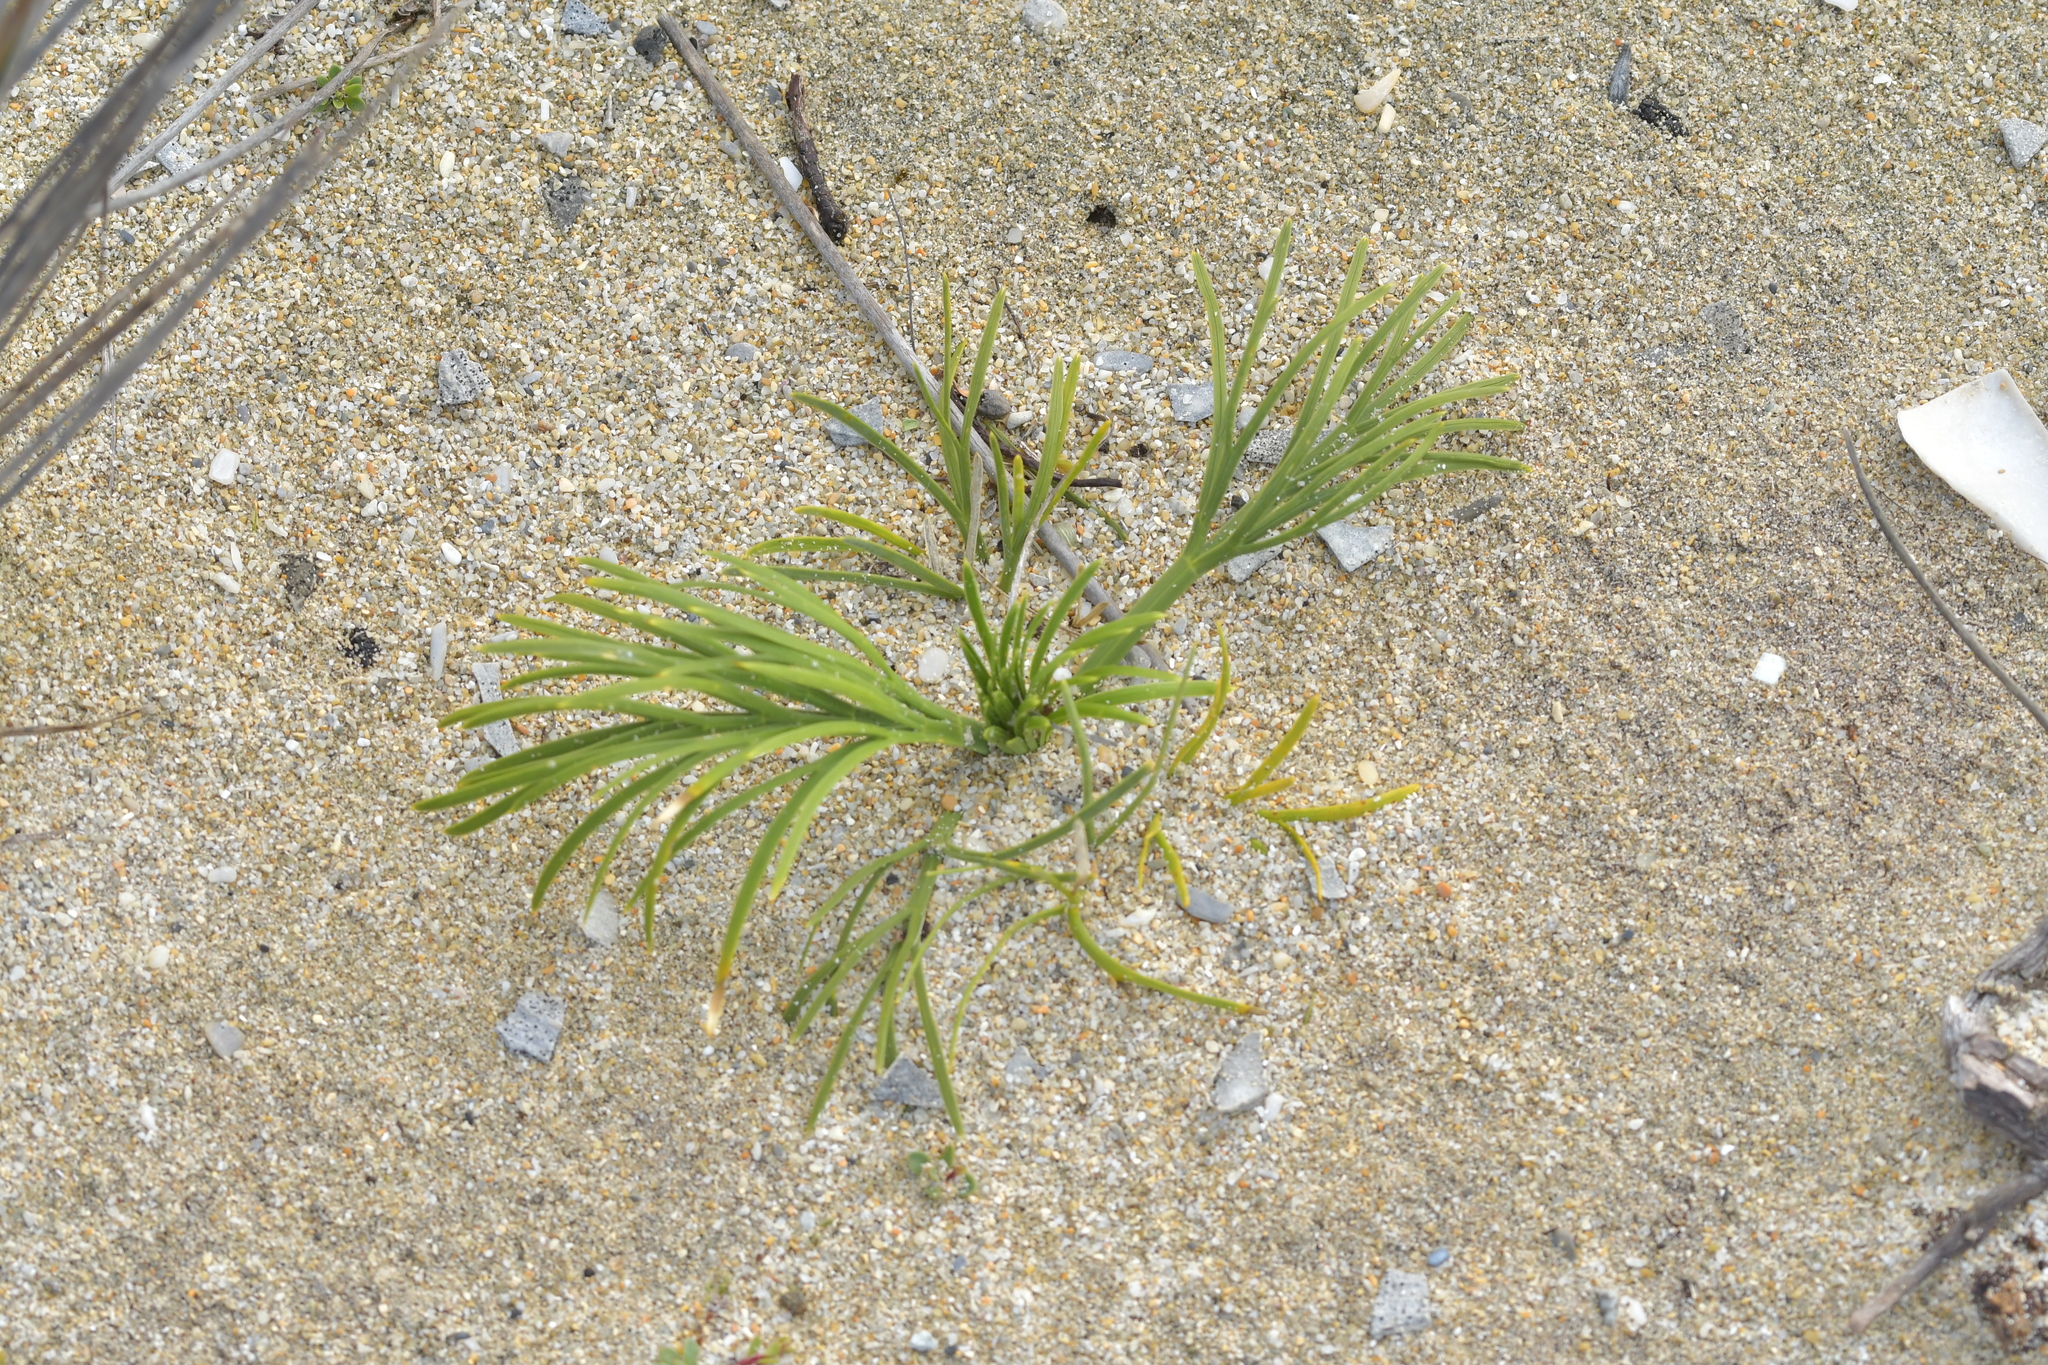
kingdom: Plantae
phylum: Tracheophyta
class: Magnoliopsida
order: Apiales
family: Apiaceae
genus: Aciphylla
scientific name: Aciphylla dieffenbachii
